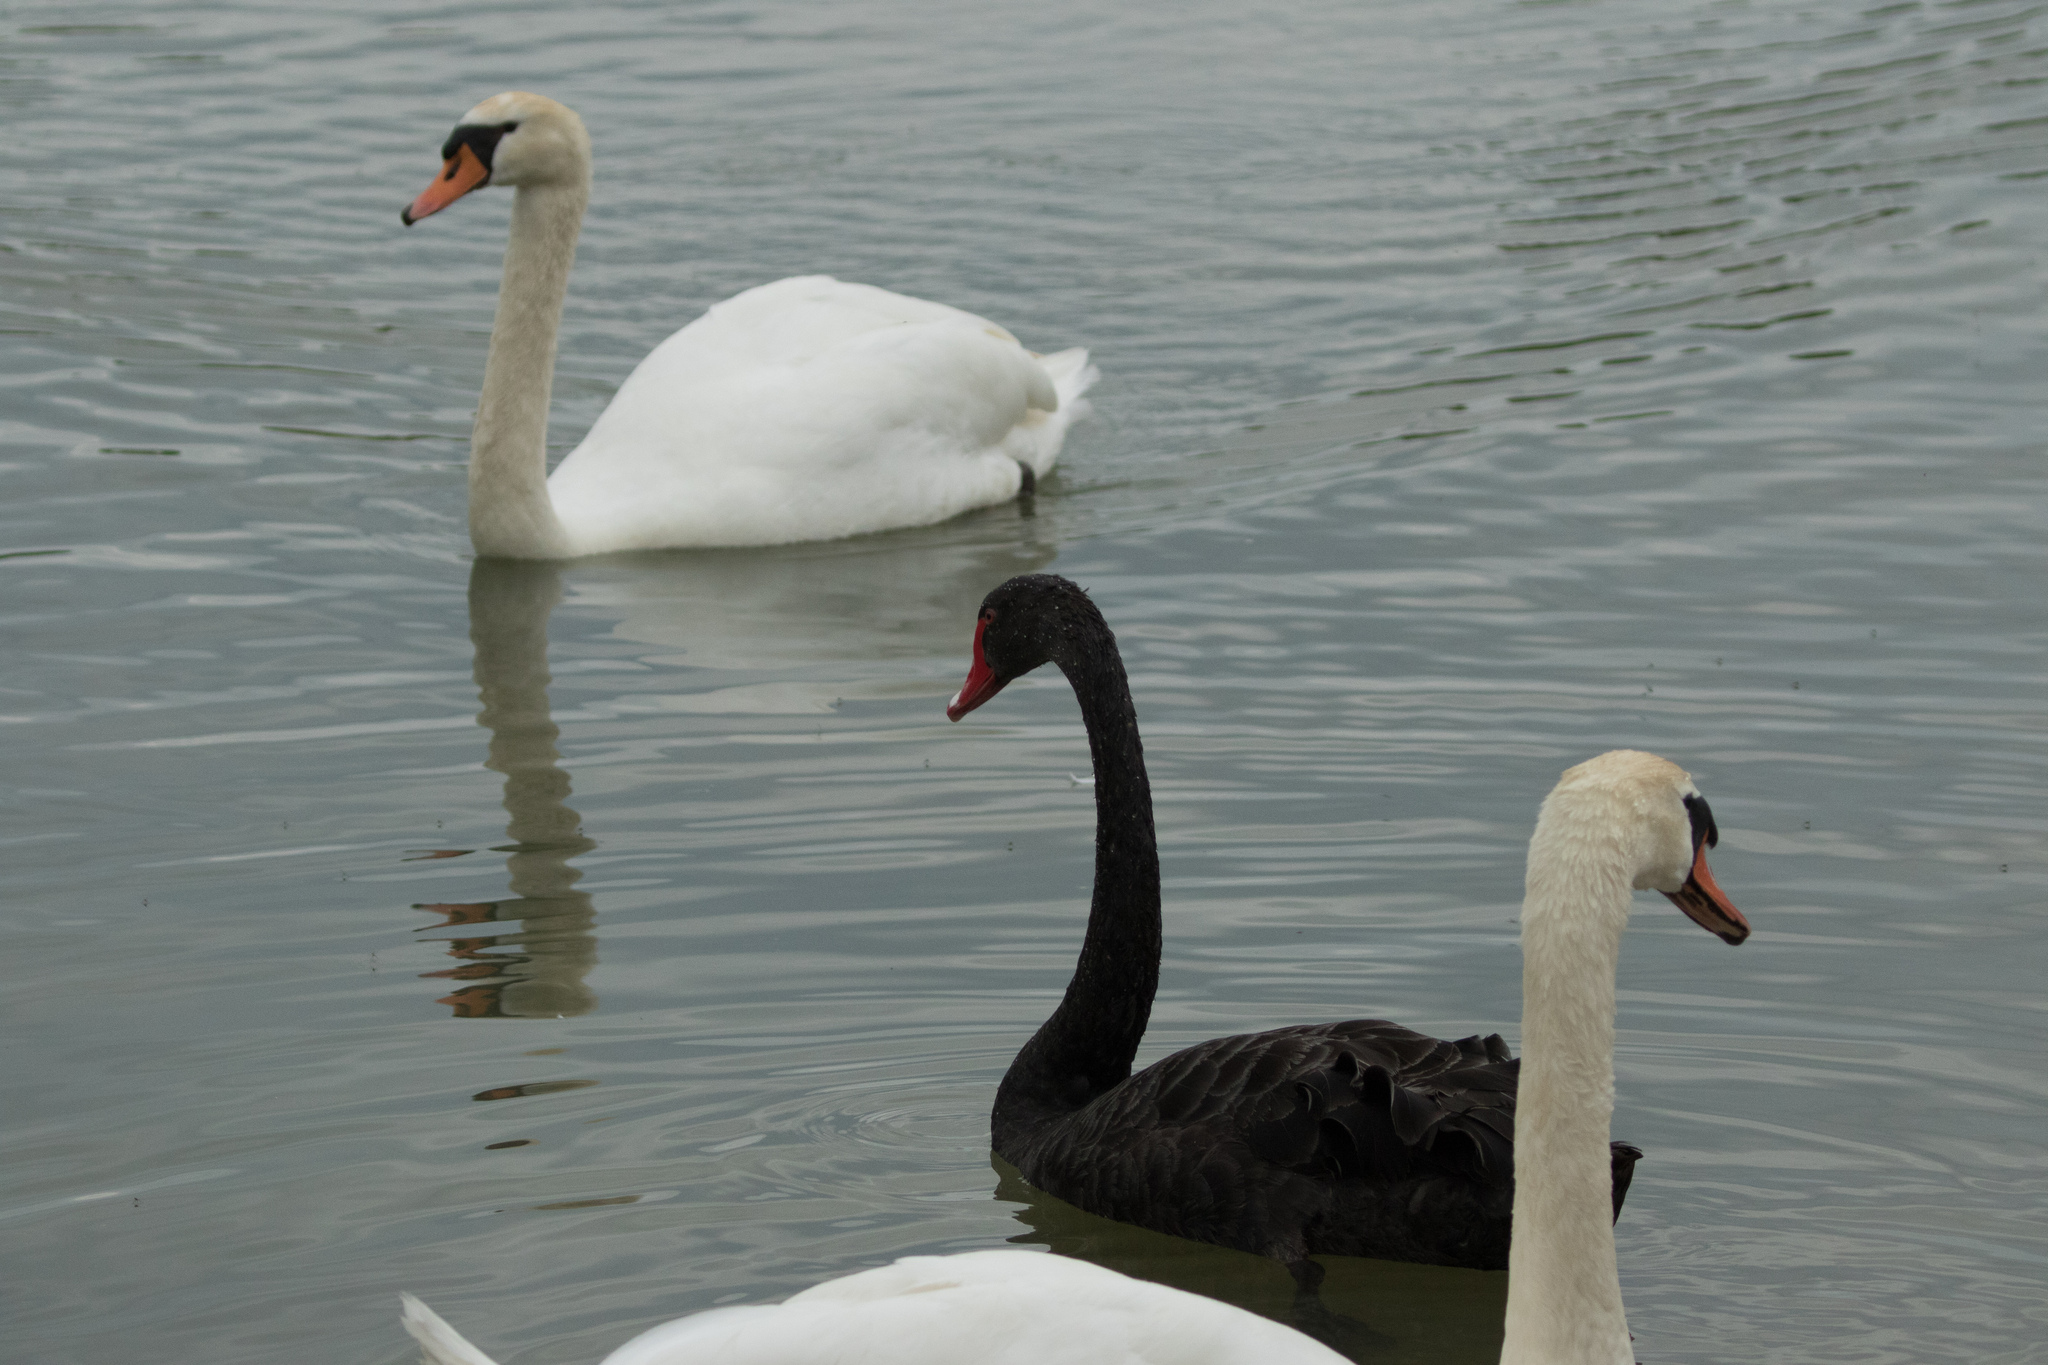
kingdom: Animalia
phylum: Chordata
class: Aves
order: Anseriformes
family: Anatidae
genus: Cygnus
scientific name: Cygnus olor
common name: Mute swan
